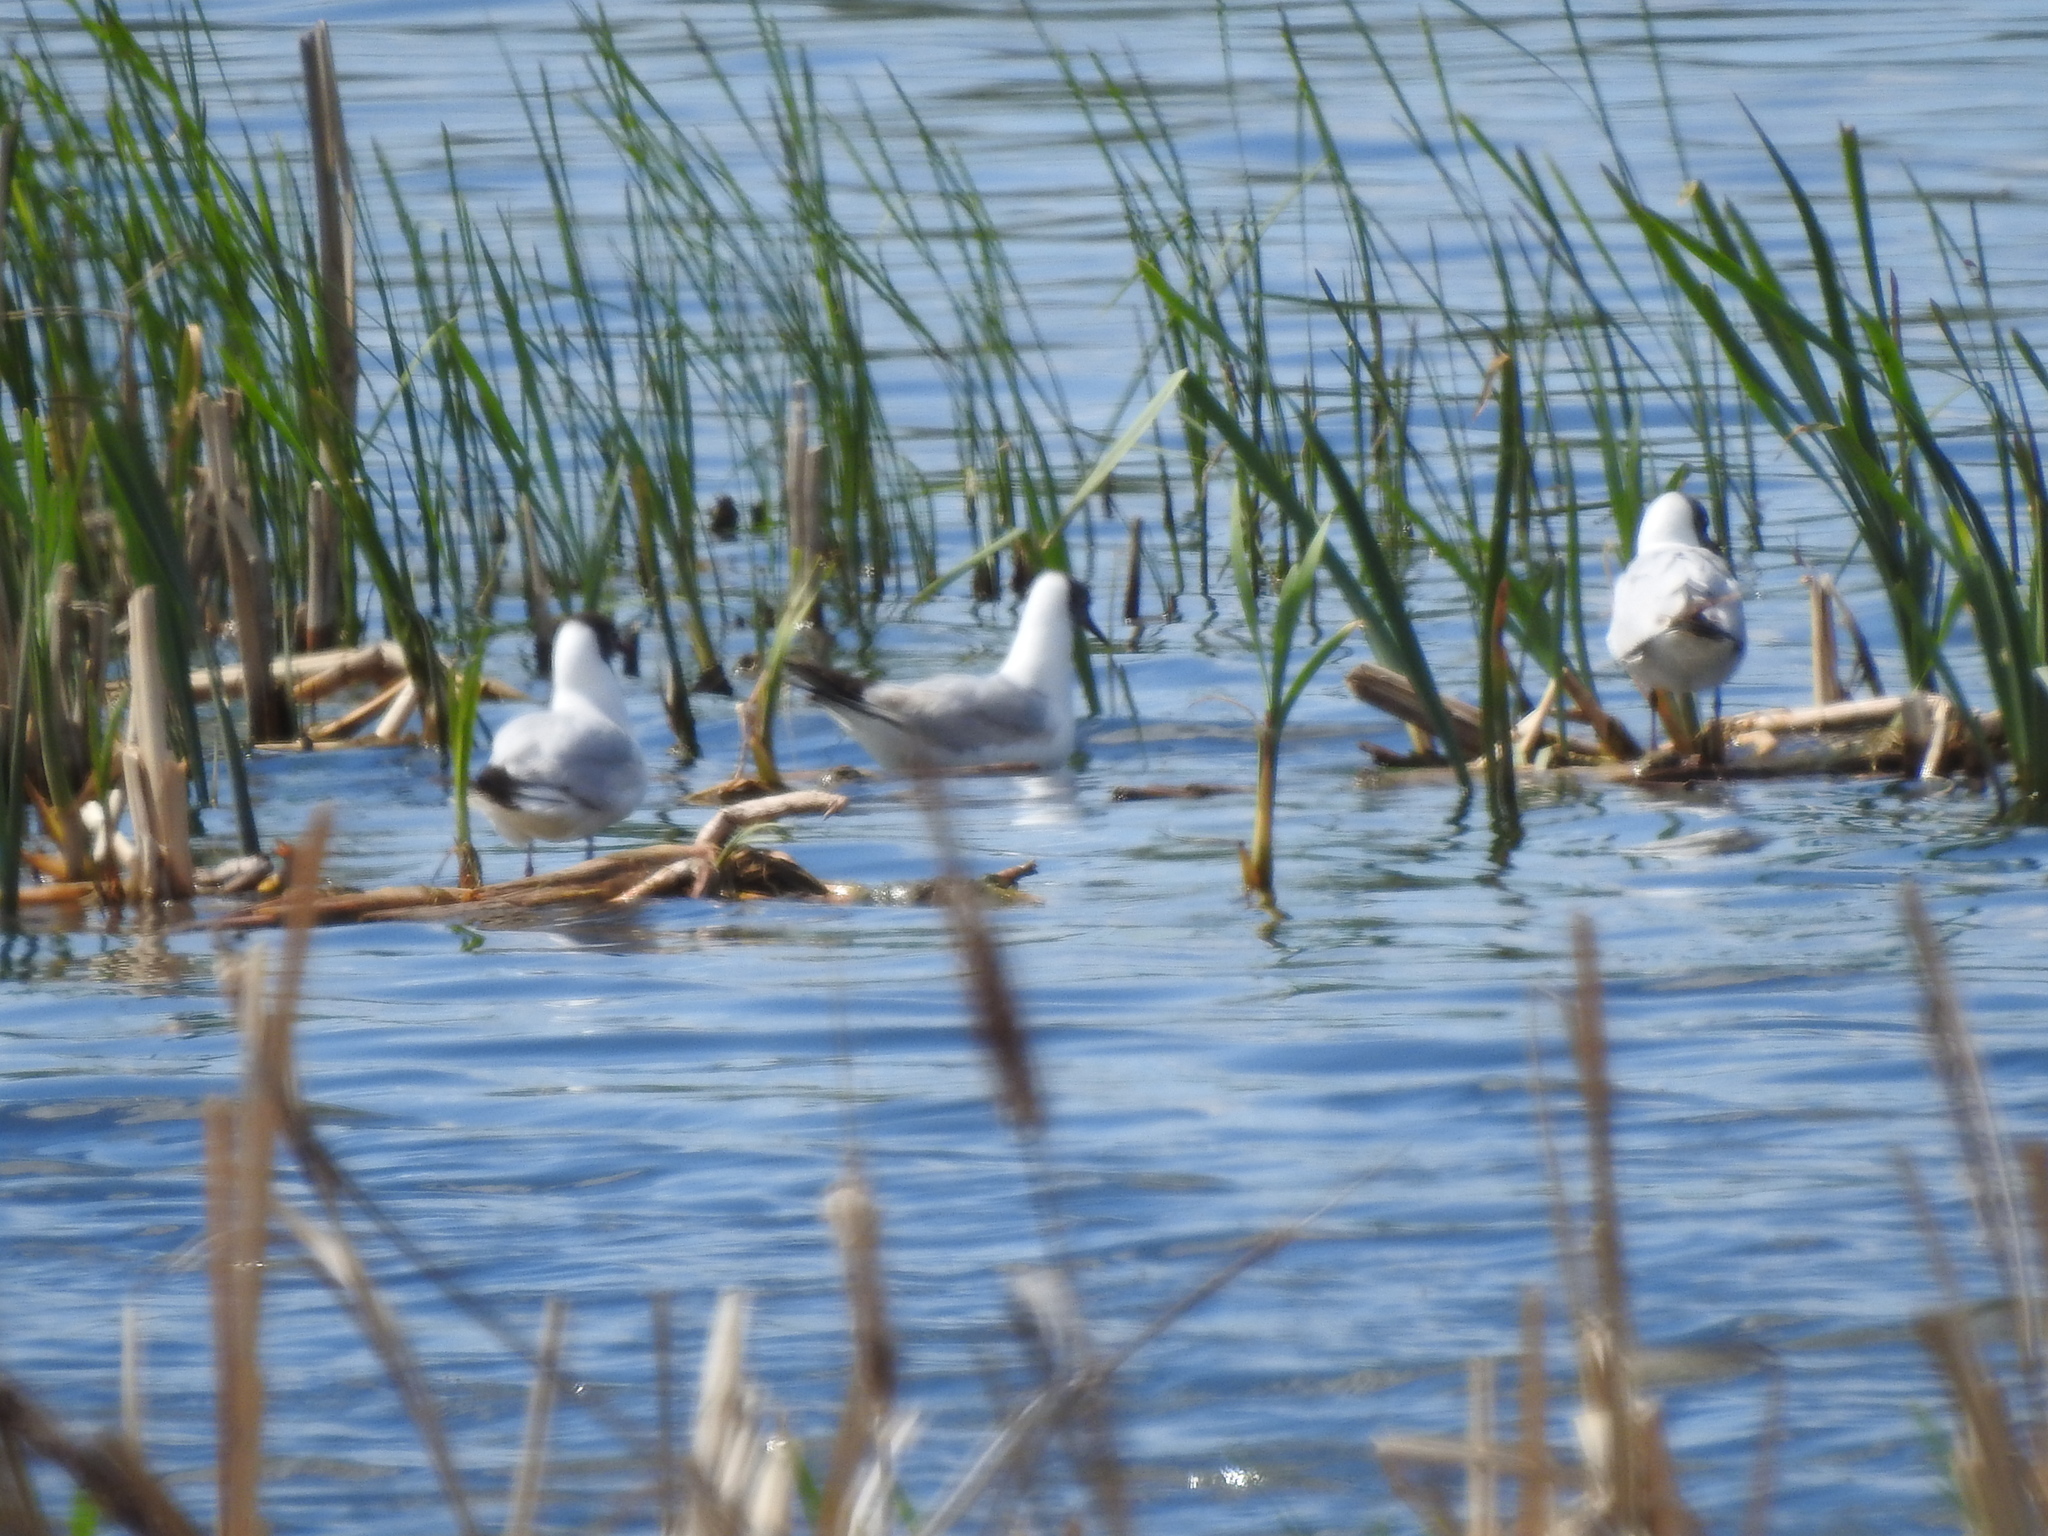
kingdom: Animalia
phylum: Chordata
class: Aves
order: Charadriiformes
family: Laridae
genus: Chroicocephalus
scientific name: Chroicocephalus ridibundus
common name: Black-headed gull
